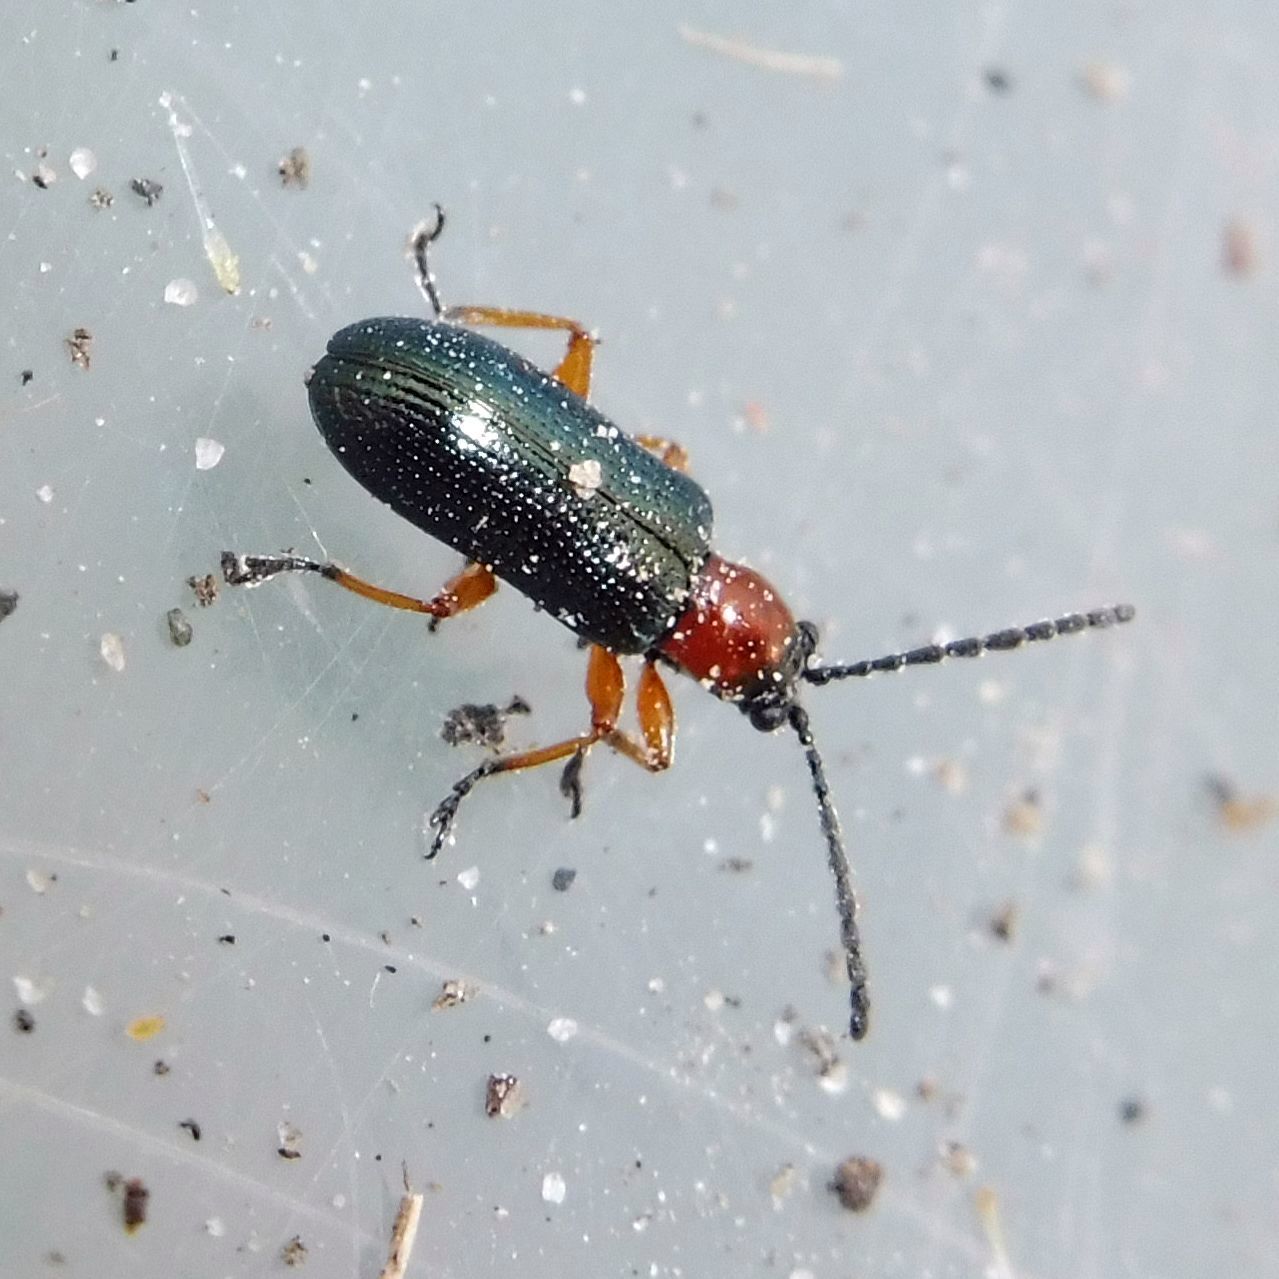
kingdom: Animalia
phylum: Arthropoda
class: Insecta
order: Coleoptera
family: Chrysomelidae
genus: Oulema
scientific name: Oulema
